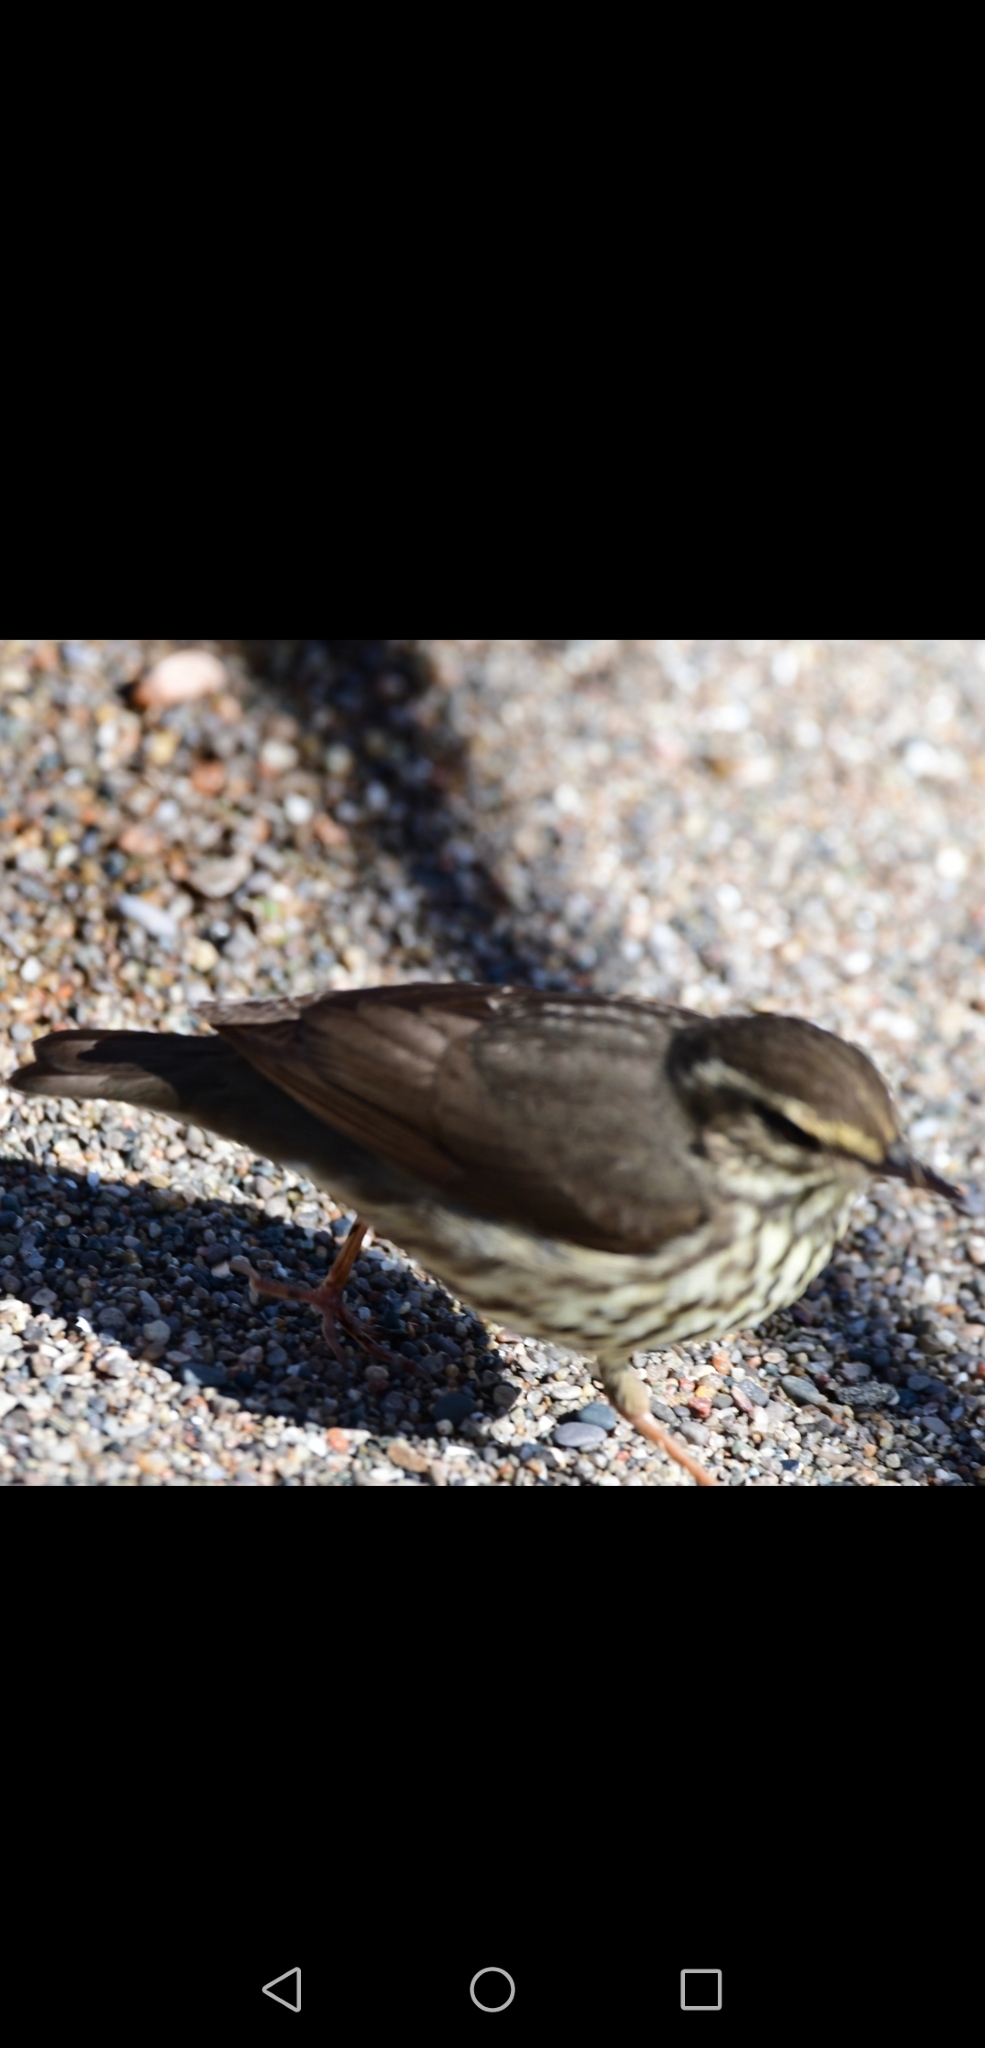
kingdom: Animalia
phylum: Chordata
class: Aves
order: Passeriformes
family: Parulidae
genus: Parkesia
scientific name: Parkesia noveboracensis
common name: Northern waterthrush
